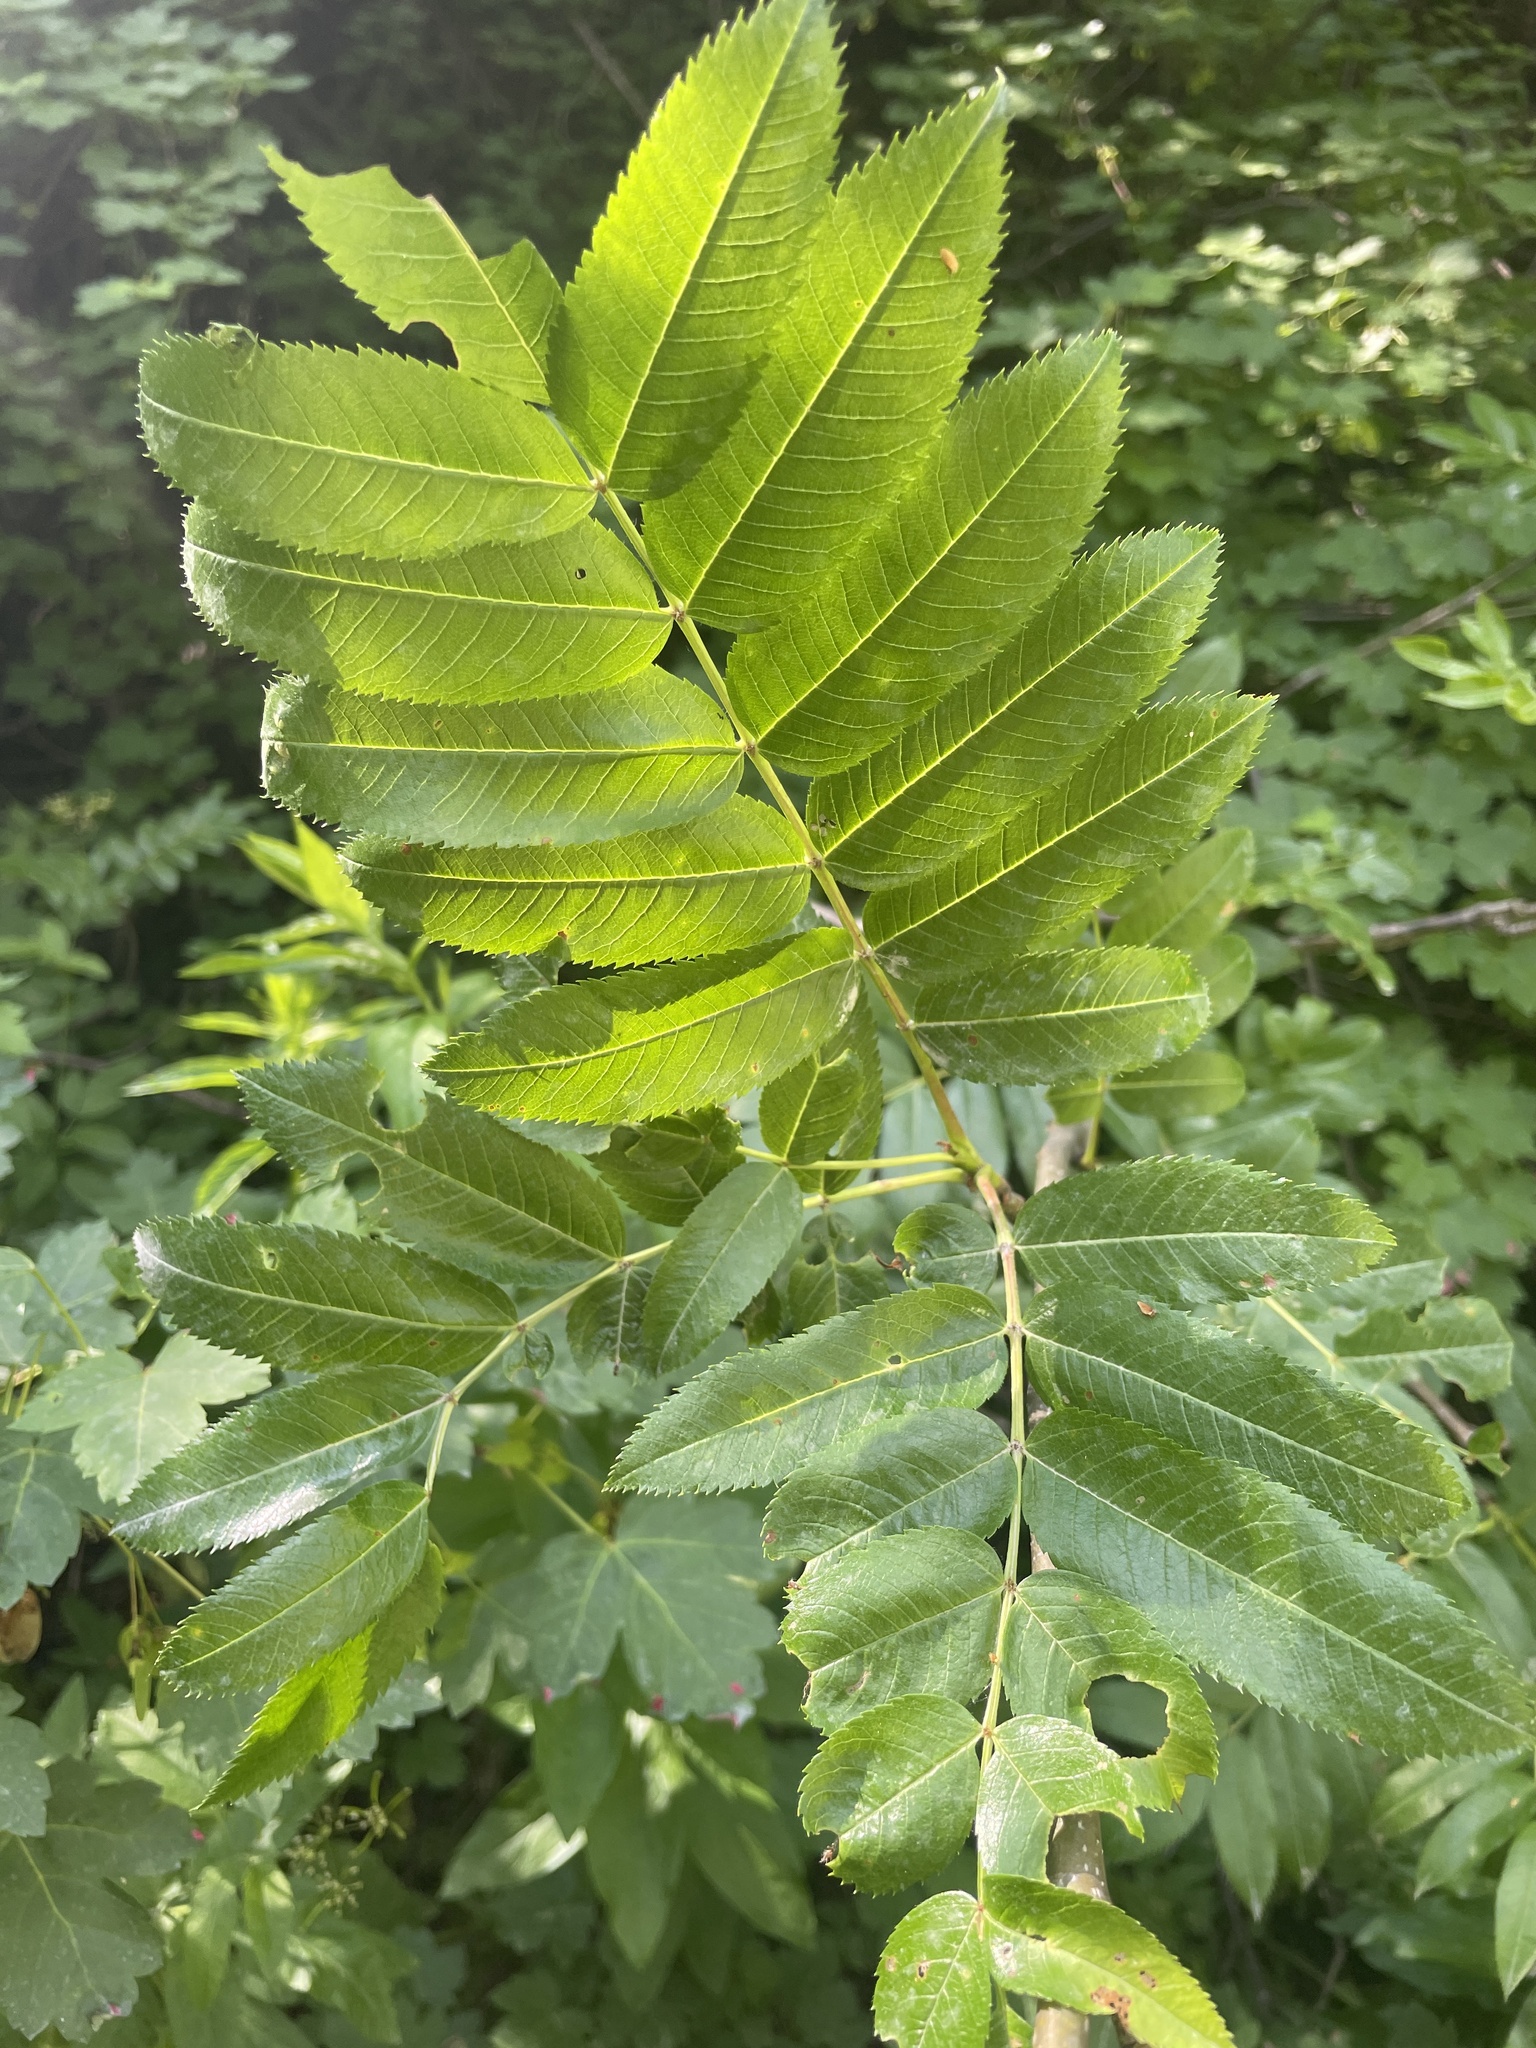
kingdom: Plantae
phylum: Tracheophyta
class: Magnoliopsida
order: Rosales
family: Rosaceae
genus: Sorbus
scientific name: Sorbus scopulina
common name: Greene's mountain-ash
